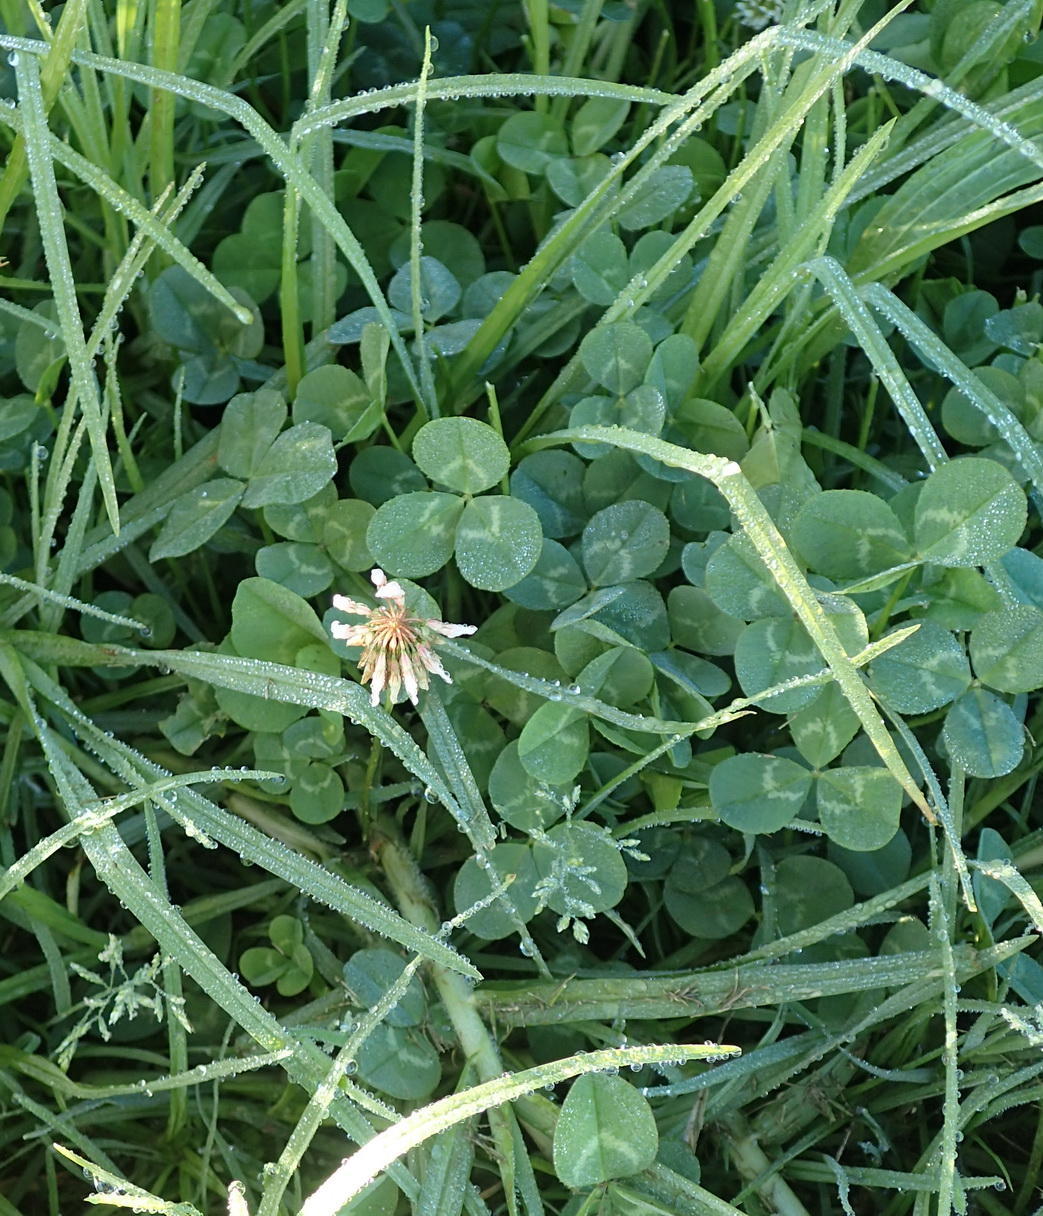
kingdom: Plantae
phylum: Tracheophyta
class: Magnoliopsida
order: Fabales
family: Fabaceae
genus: Trifolium
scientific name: Trifolium repens
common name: White clover
